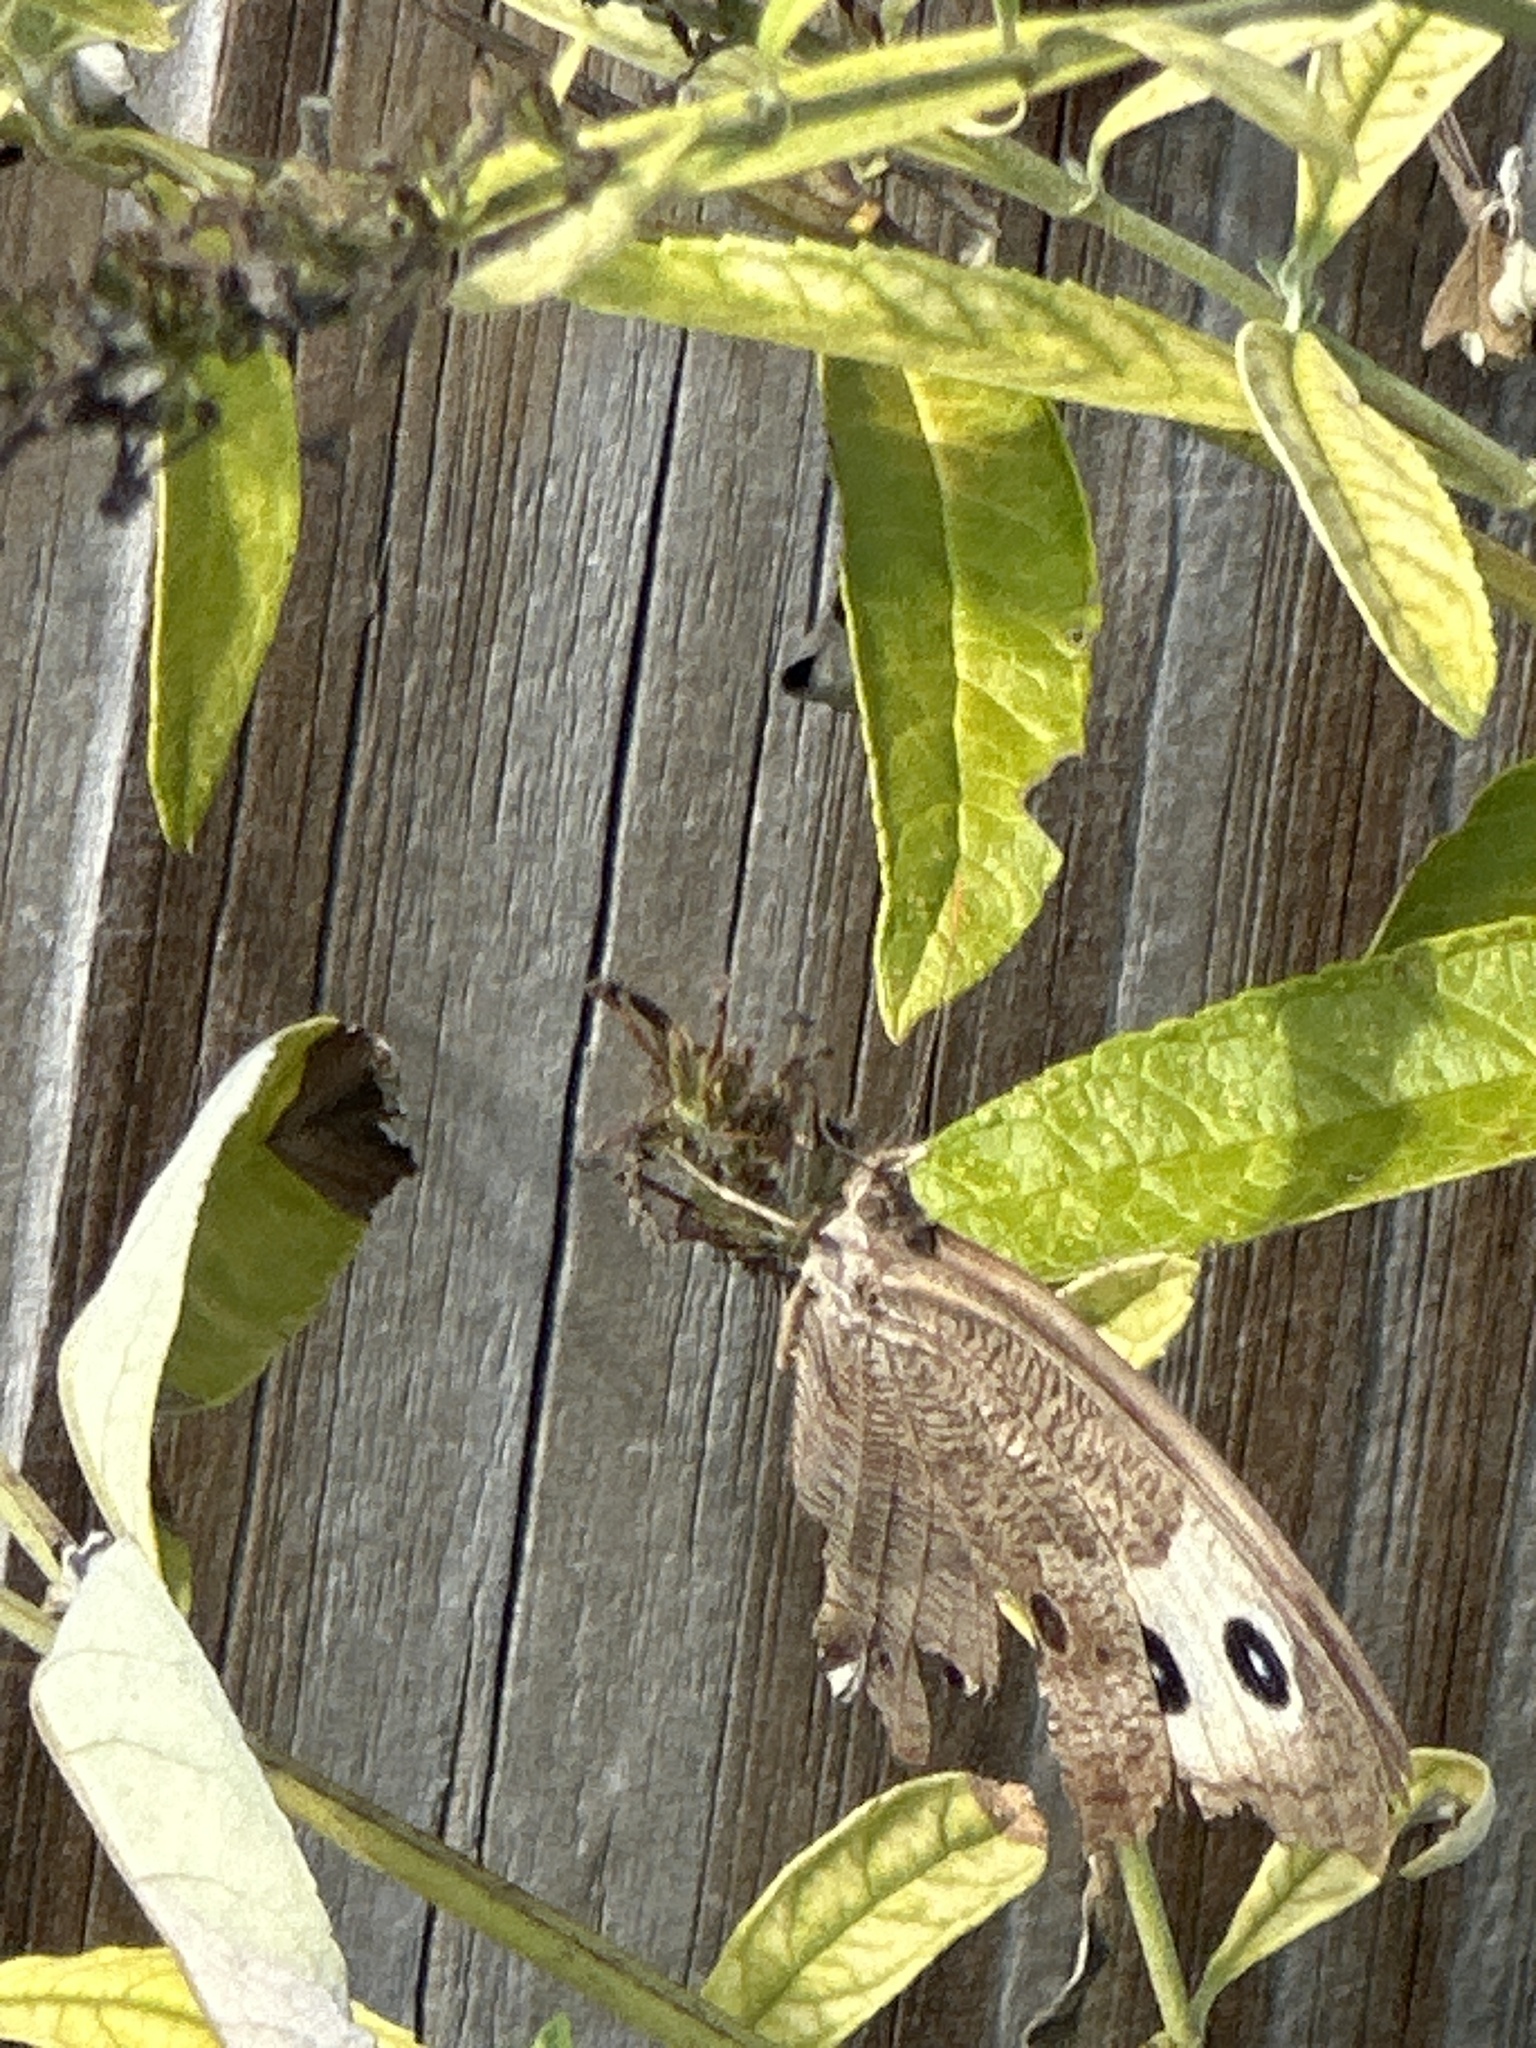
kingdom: Animalia
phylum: Arthropoda
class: Insecta
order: Lepidoptera
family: Nymphalidae
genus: Cercyonis
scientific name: Cercyonis pegala
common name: Common wood-nymph
